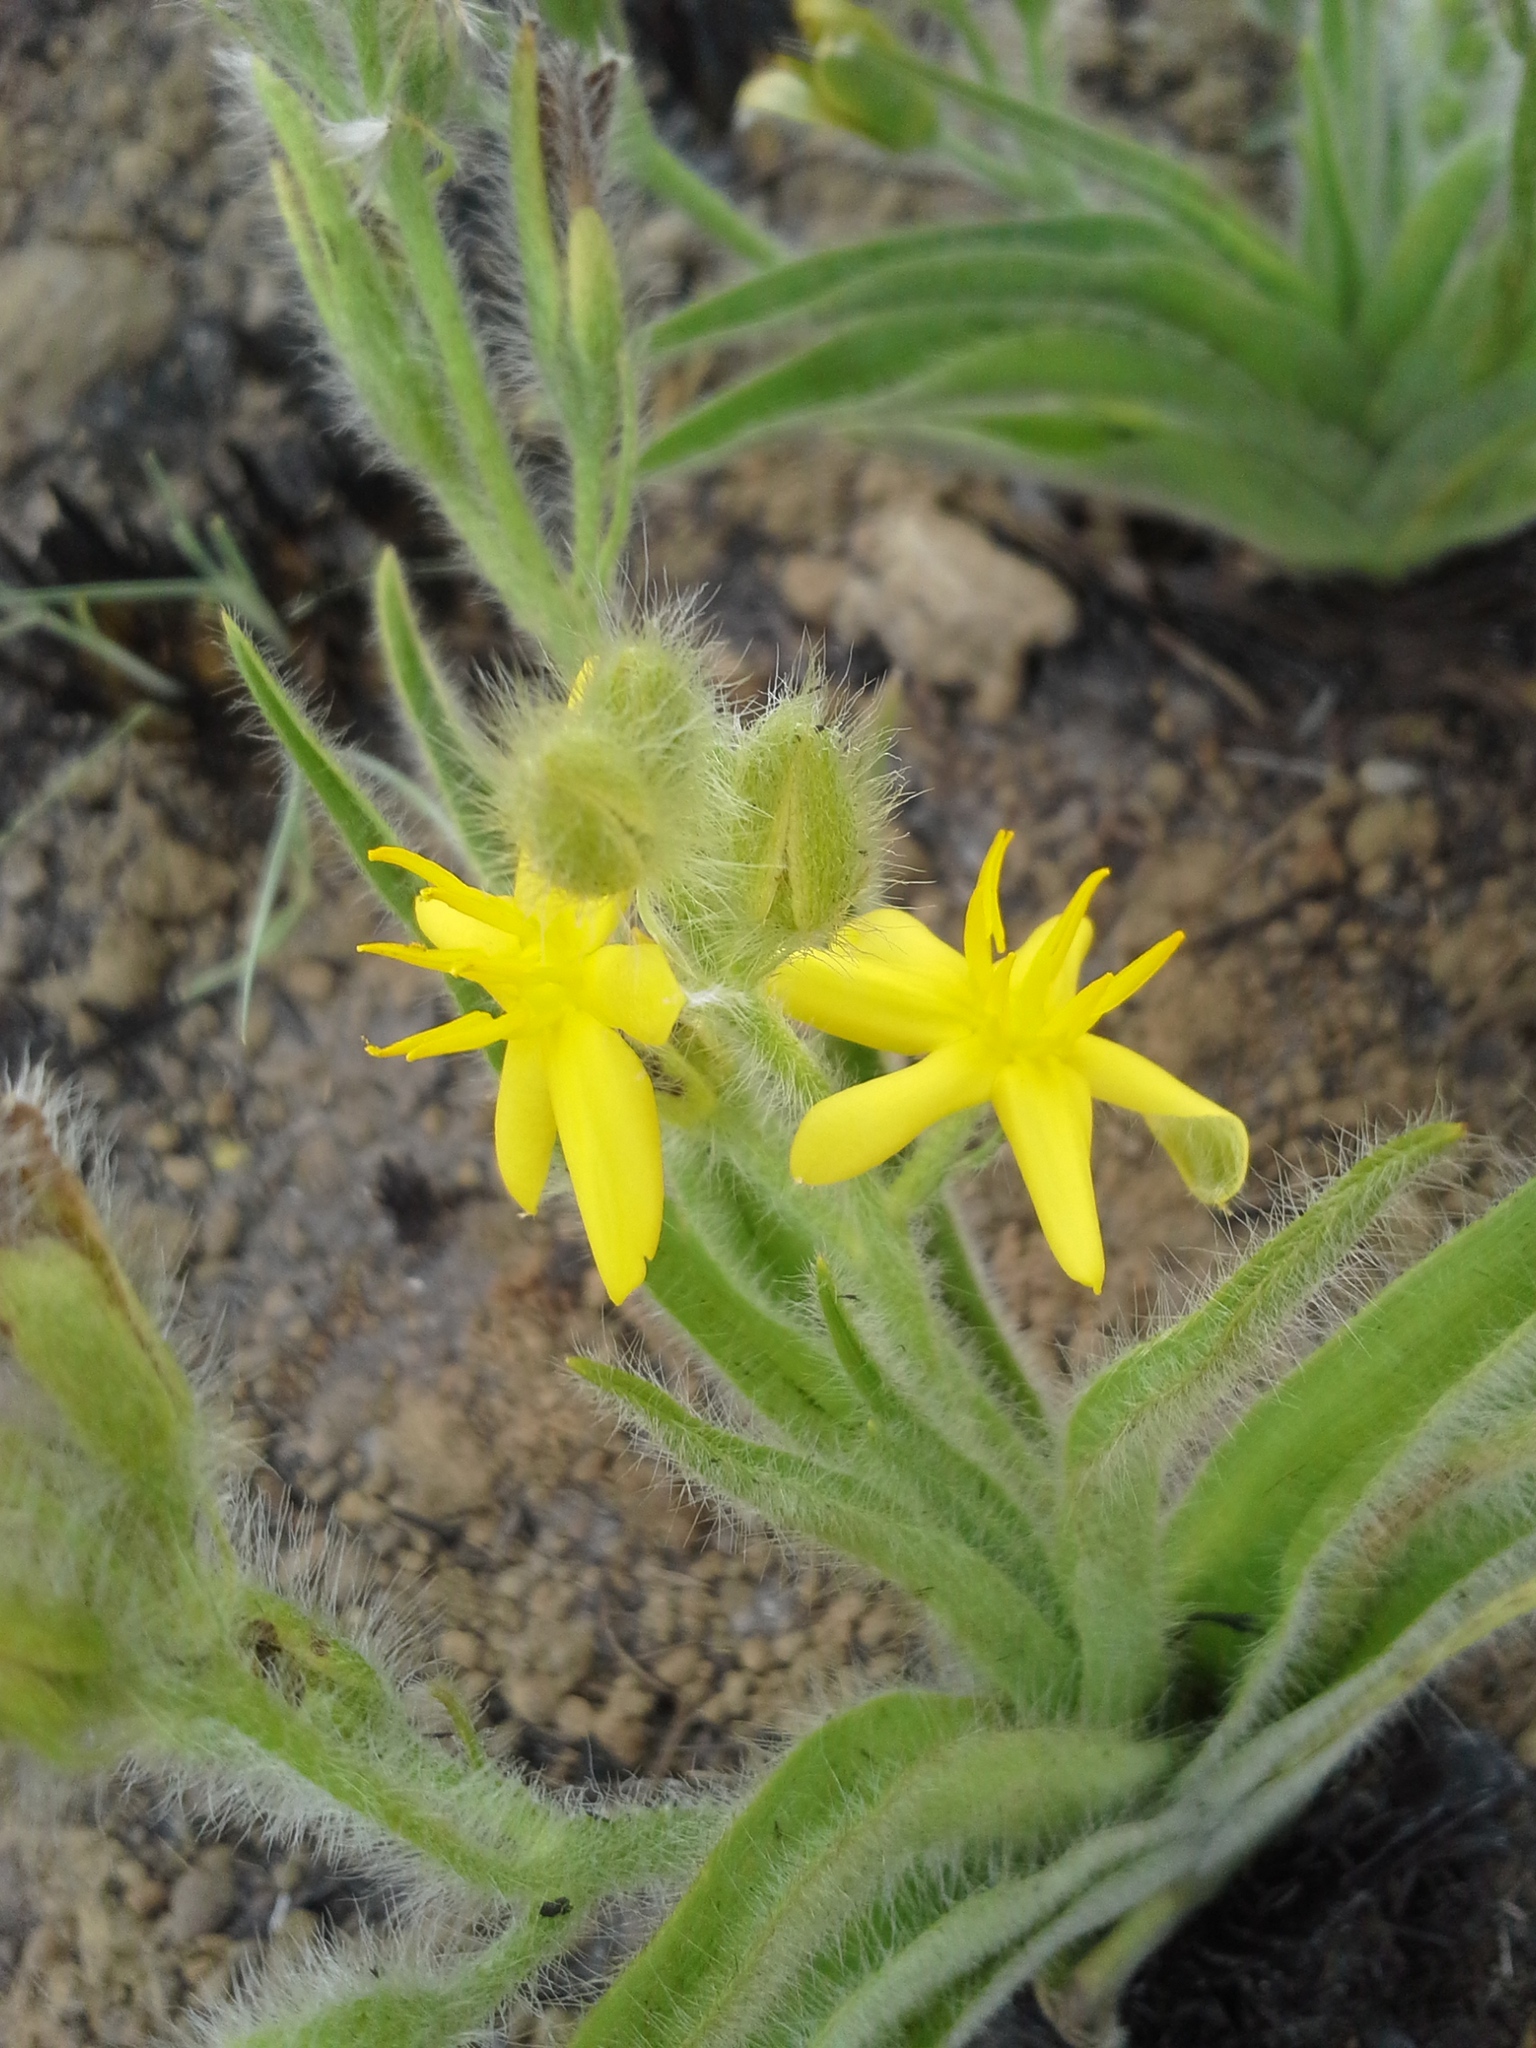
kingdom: Plantae
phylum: Tracheophyta
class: Liliopsida
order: Asparagales
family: Hypoxidaceae
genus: Hypoxis
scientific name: Hypoxis hemerocallidea
